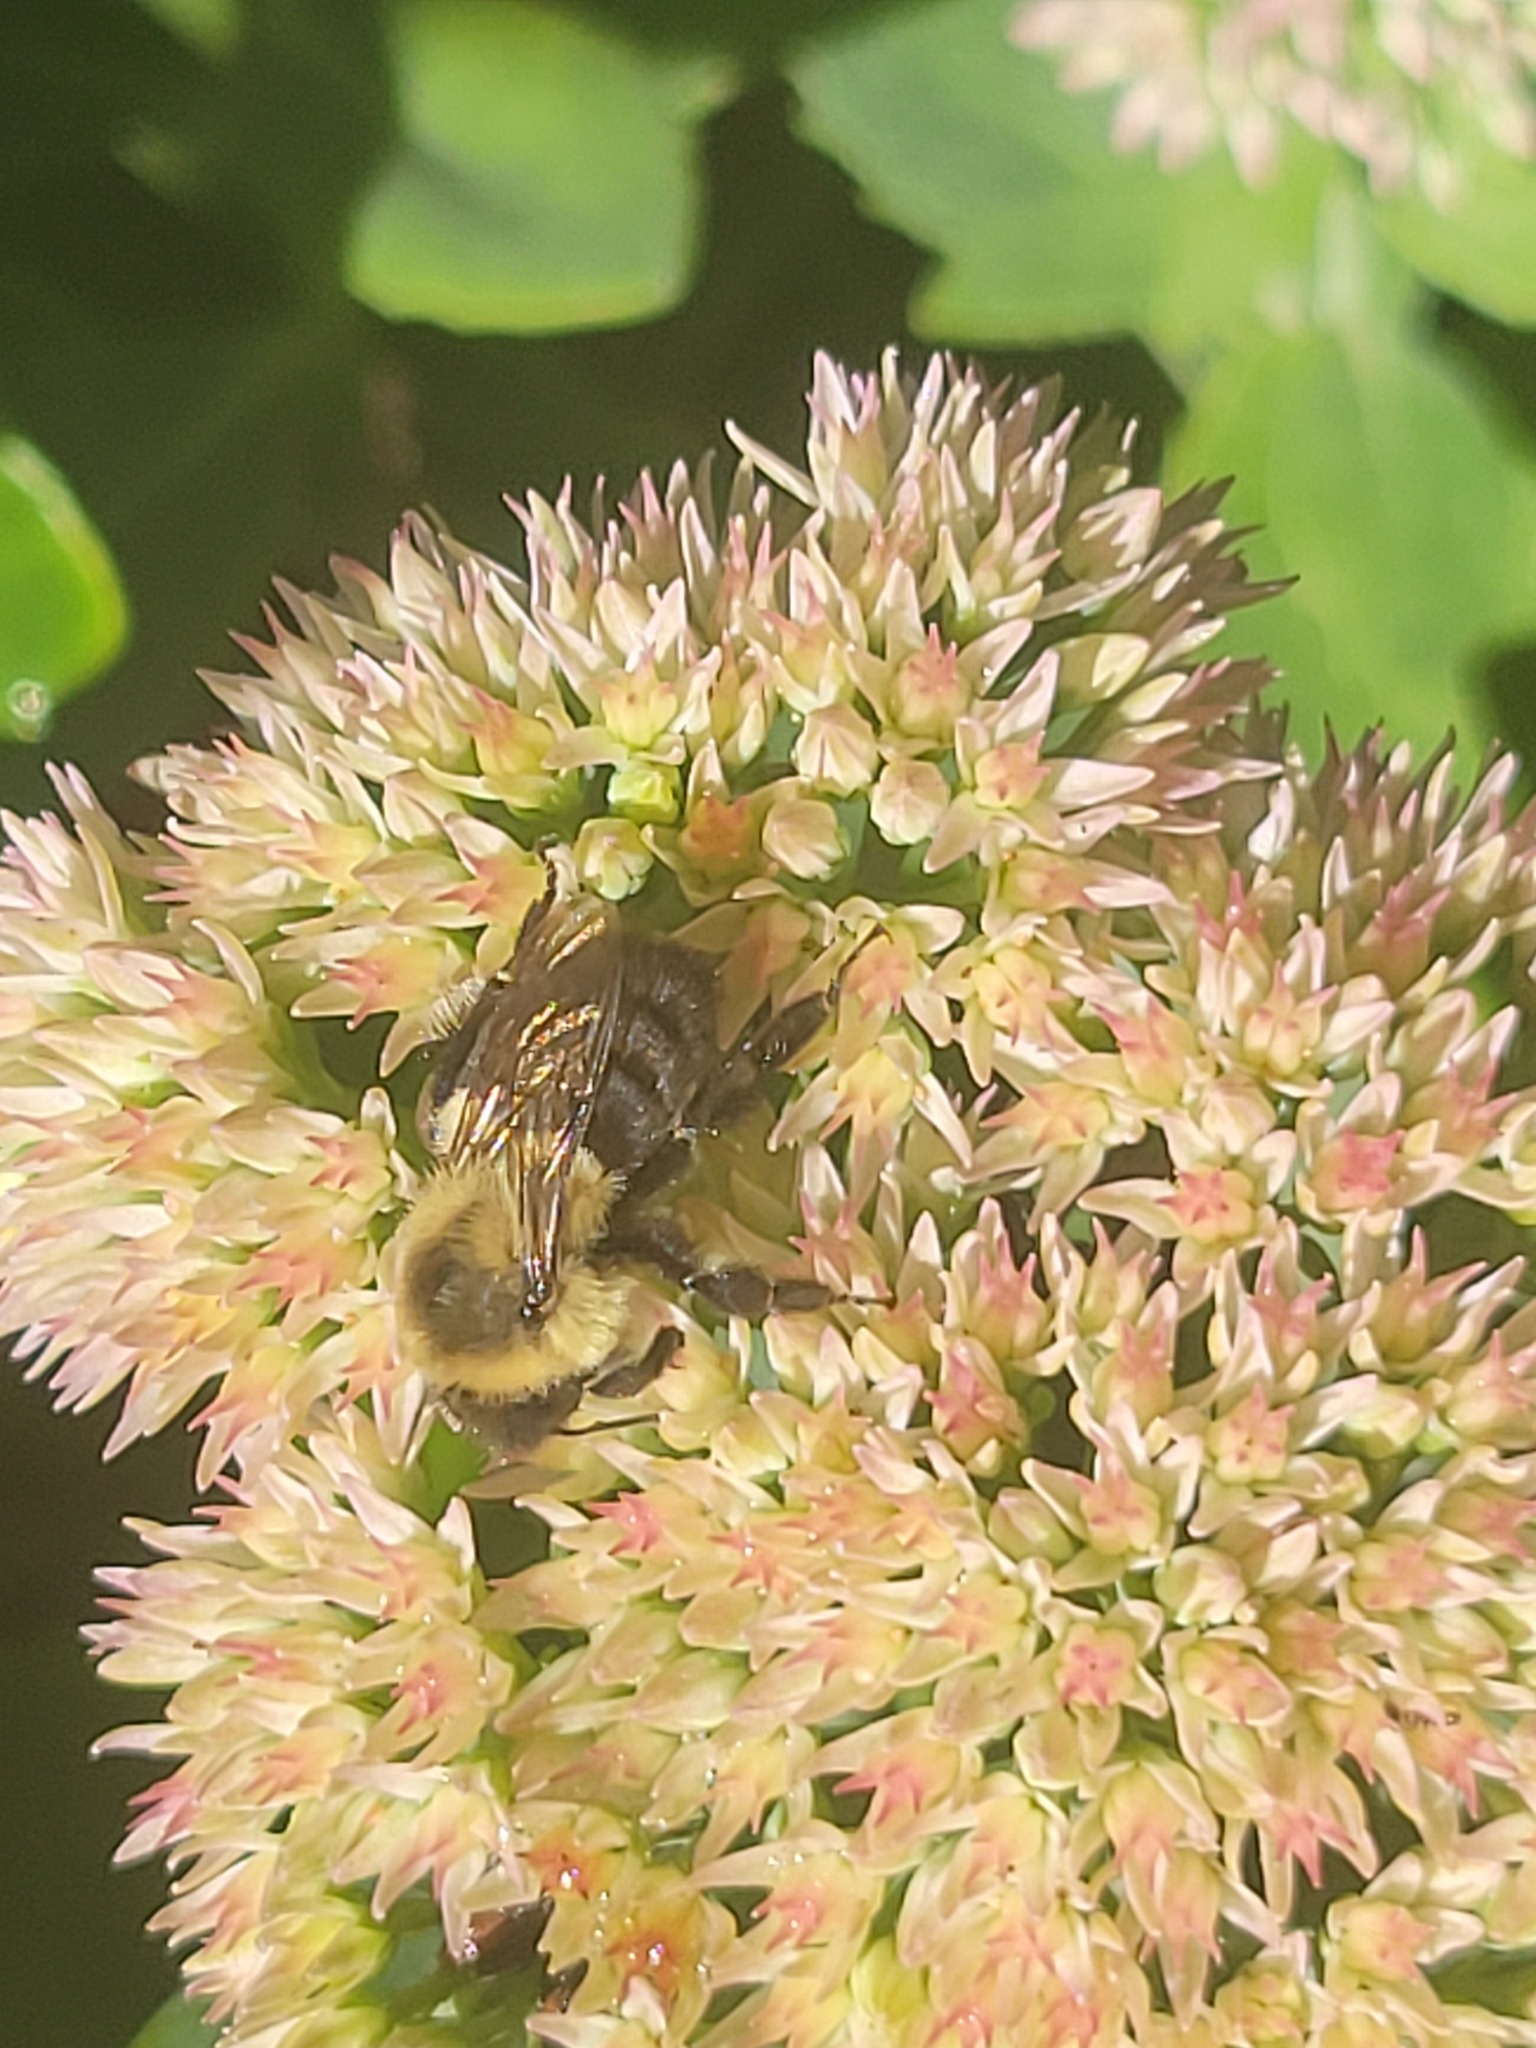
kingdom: Animalia
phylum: Arthropoda
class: Insecta
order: Hymenoptera
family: Apidae
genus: Bombus
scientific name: Bombus impatiens
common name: Common eastern bumble bee
